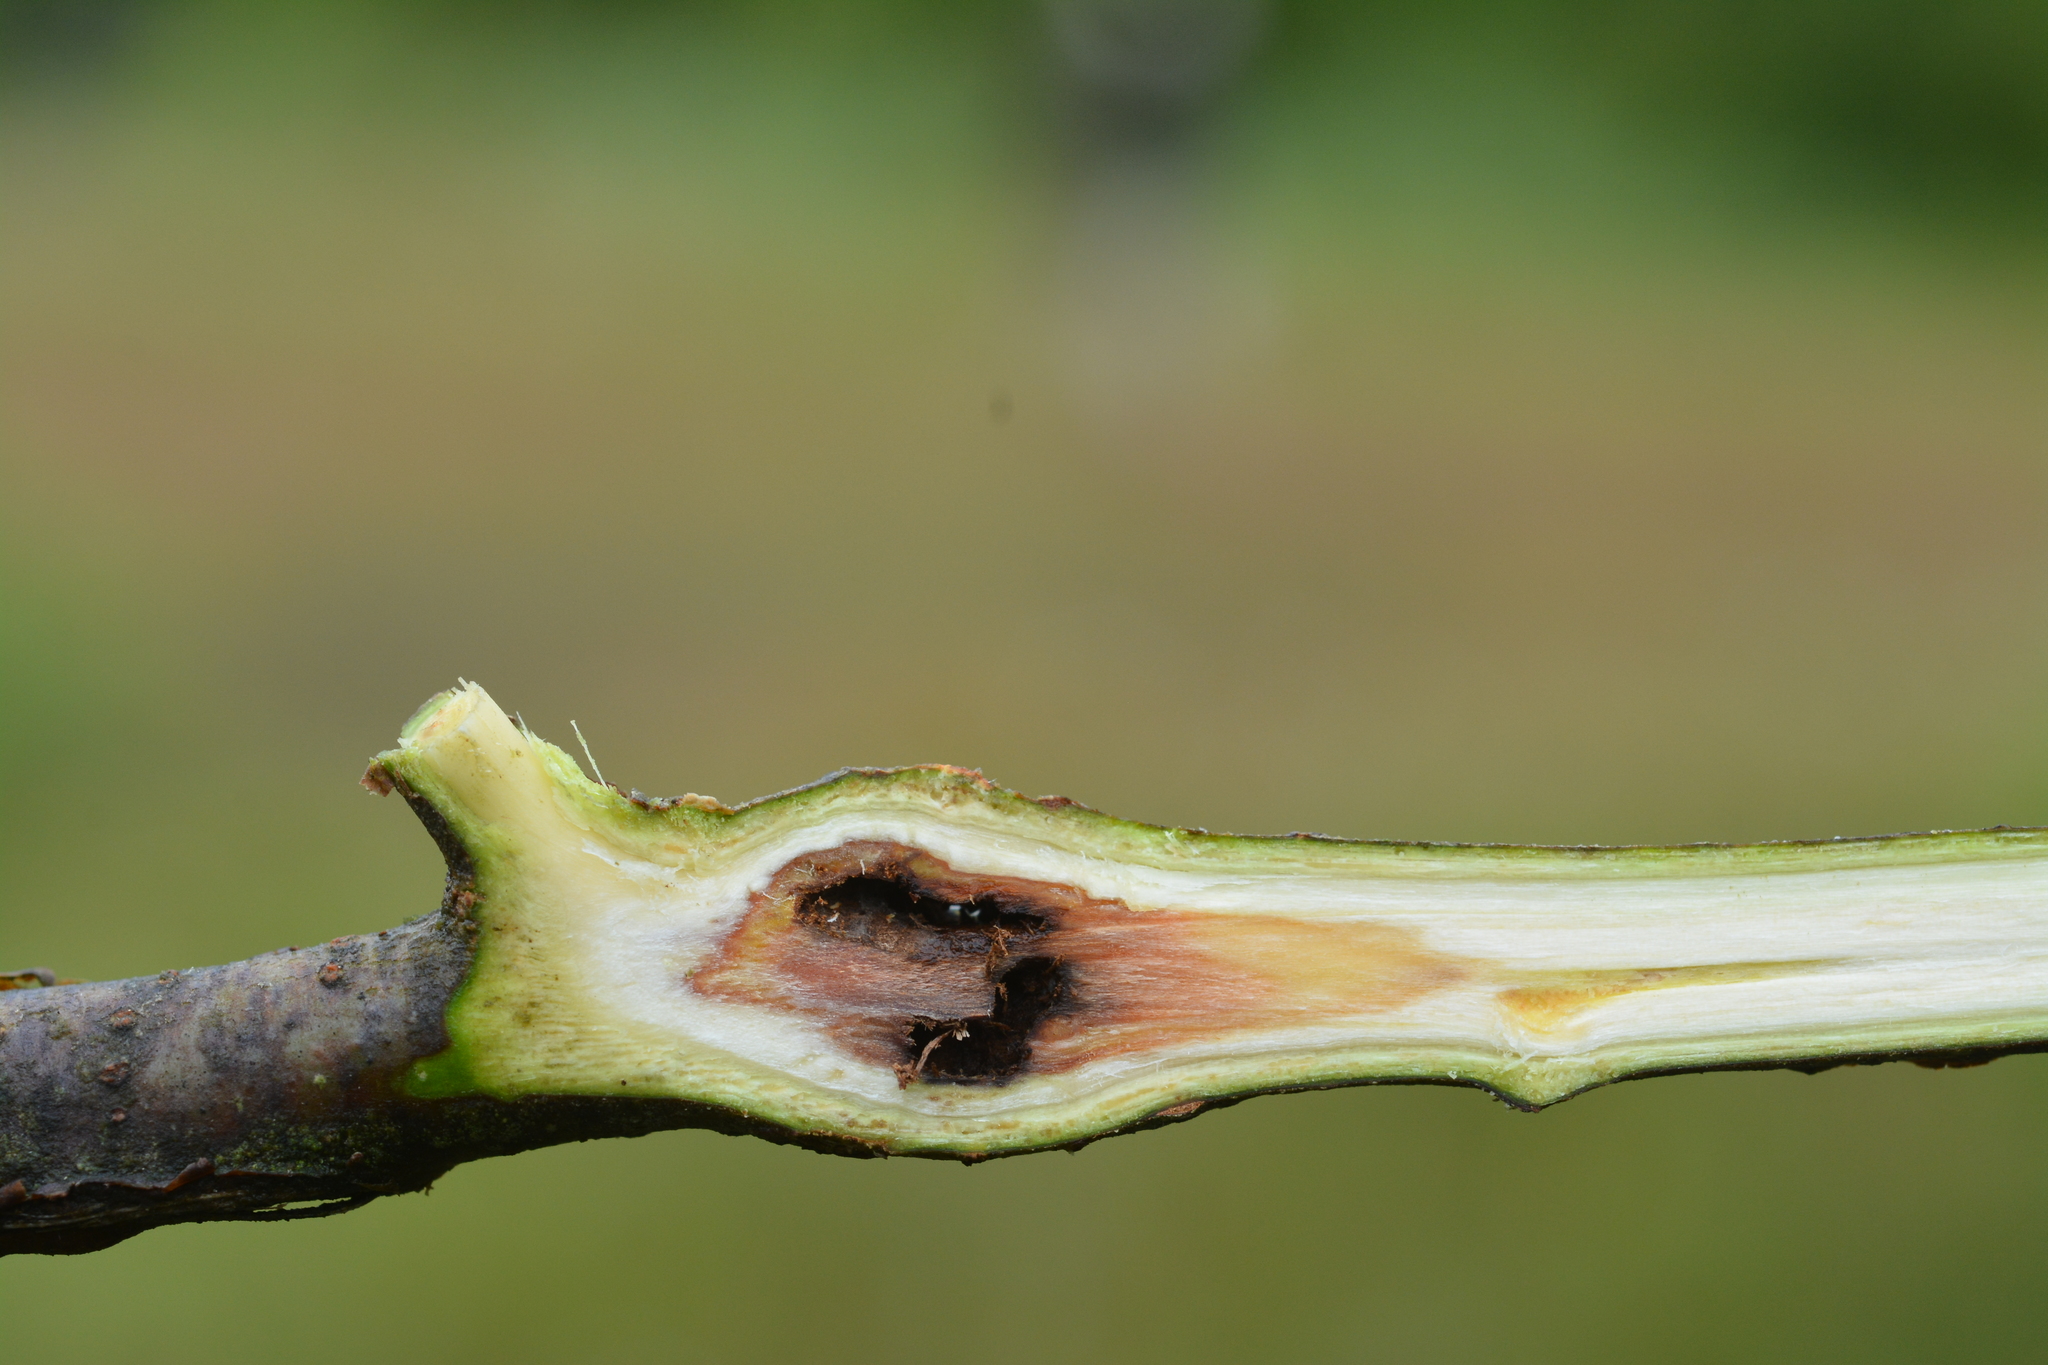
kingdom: Animalia
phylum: Arthropoda
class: Insecta
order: Coleoptera
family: Cerambycidae
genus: Saperda
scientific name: Saperda populnea
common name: Small poplar borer
